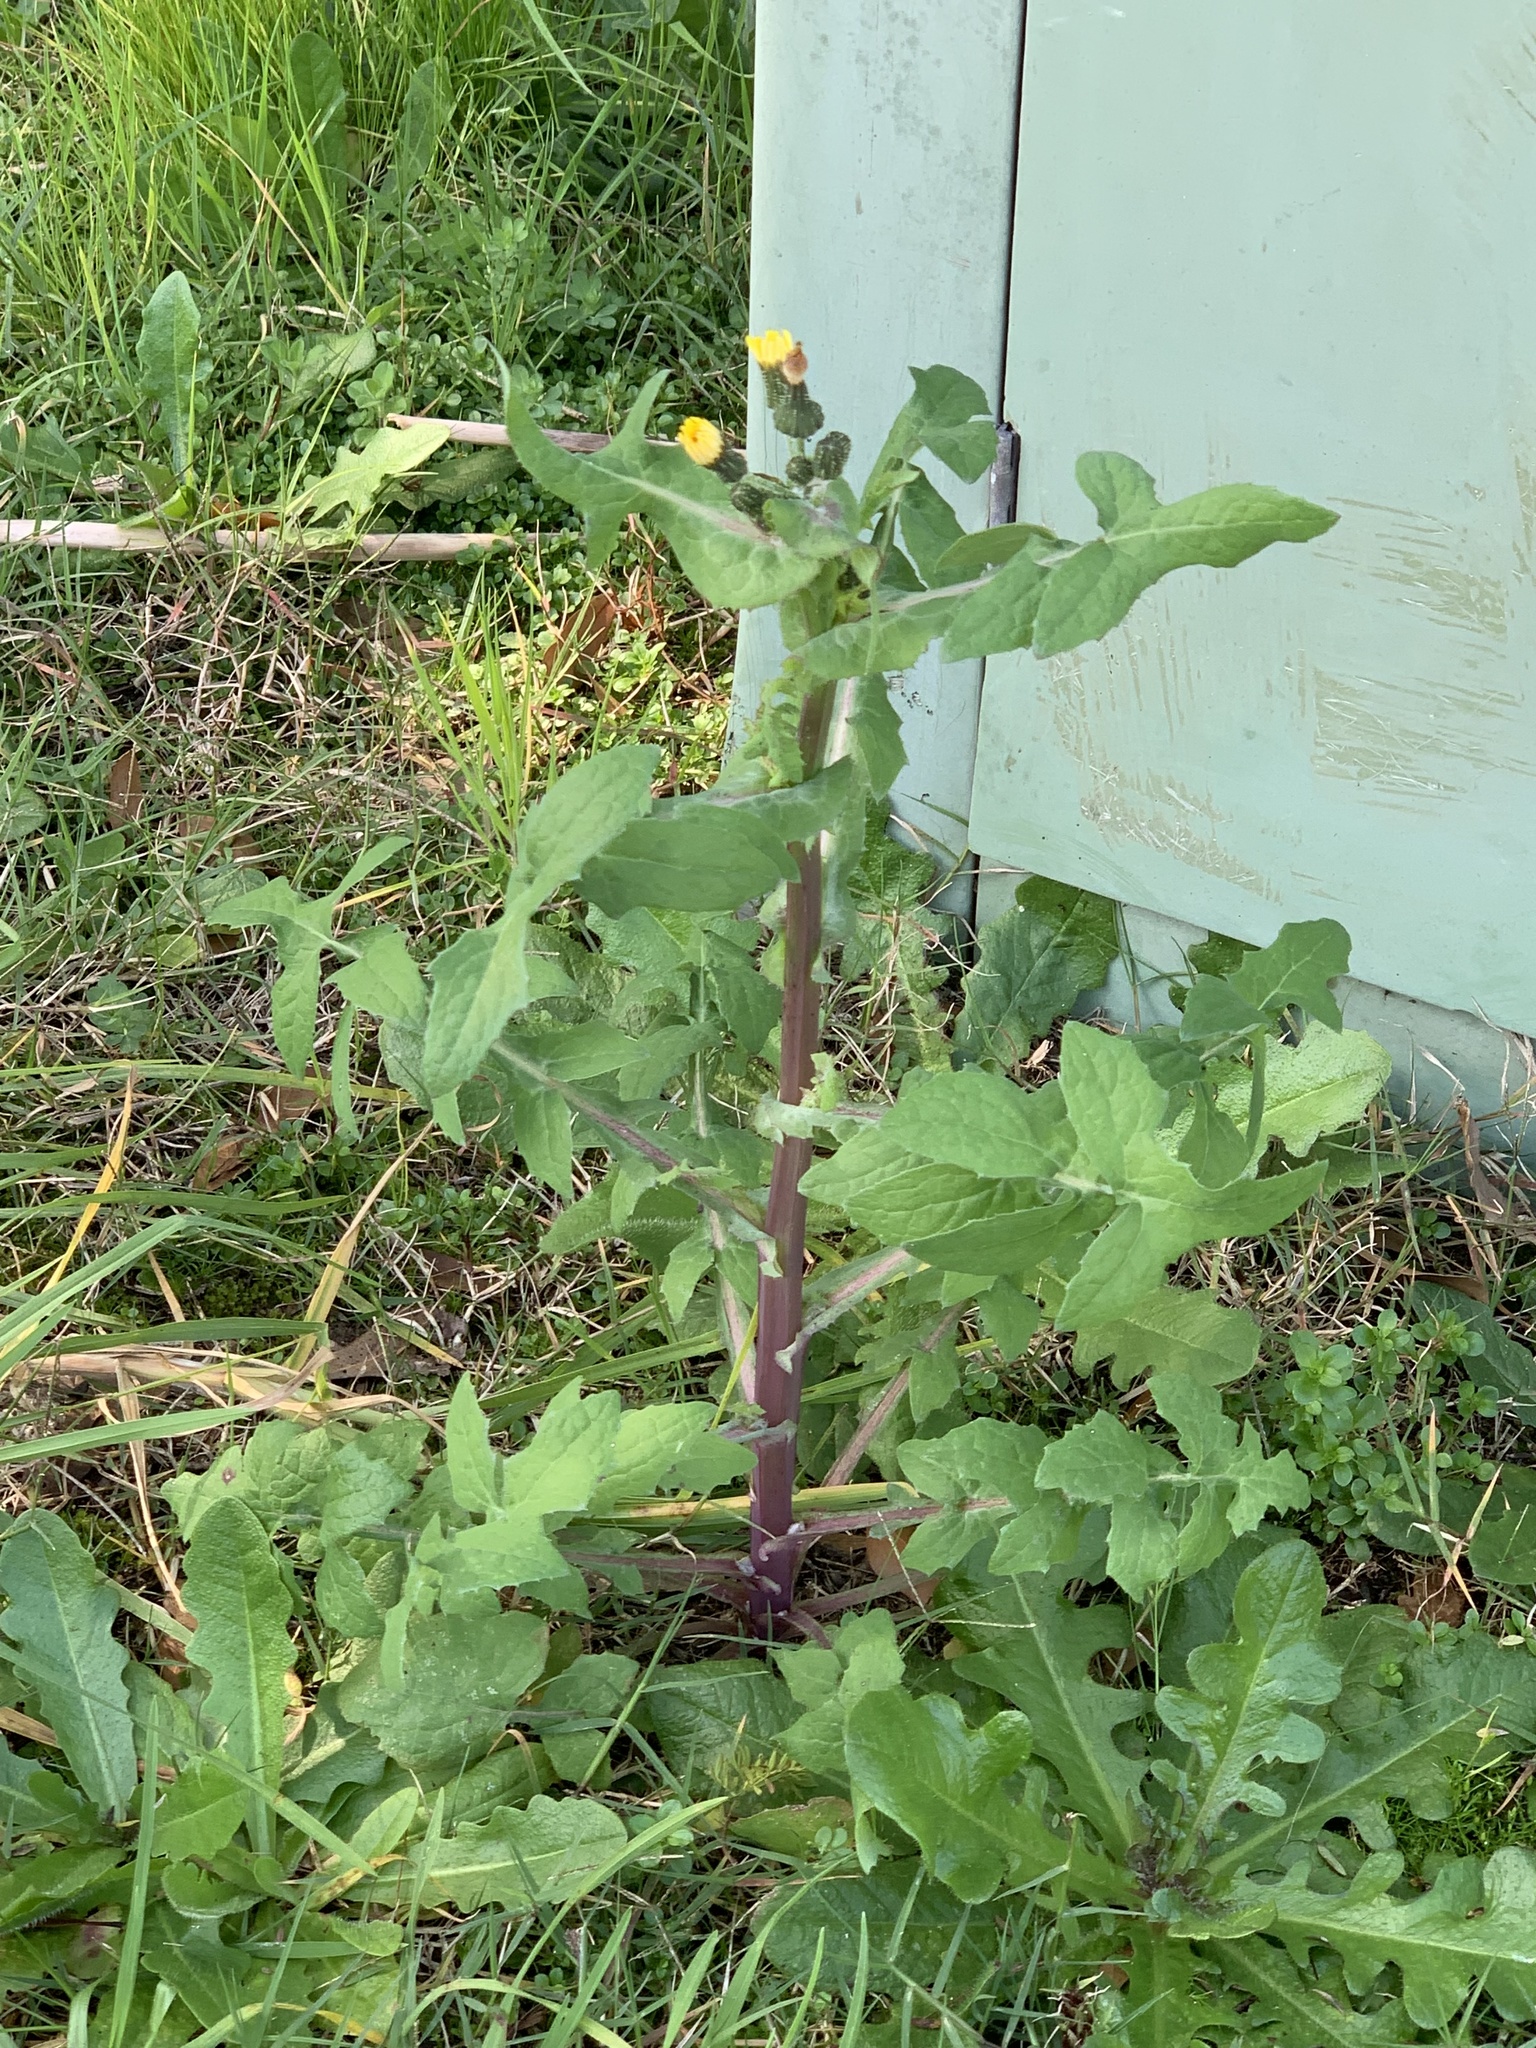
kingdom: Plantae
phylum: Tracheophyta
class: Magnoliopsida
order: Asterales
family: Asteraceae
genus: Sonchus
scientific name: Sonchus oleraceus
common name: Common sowthistle
